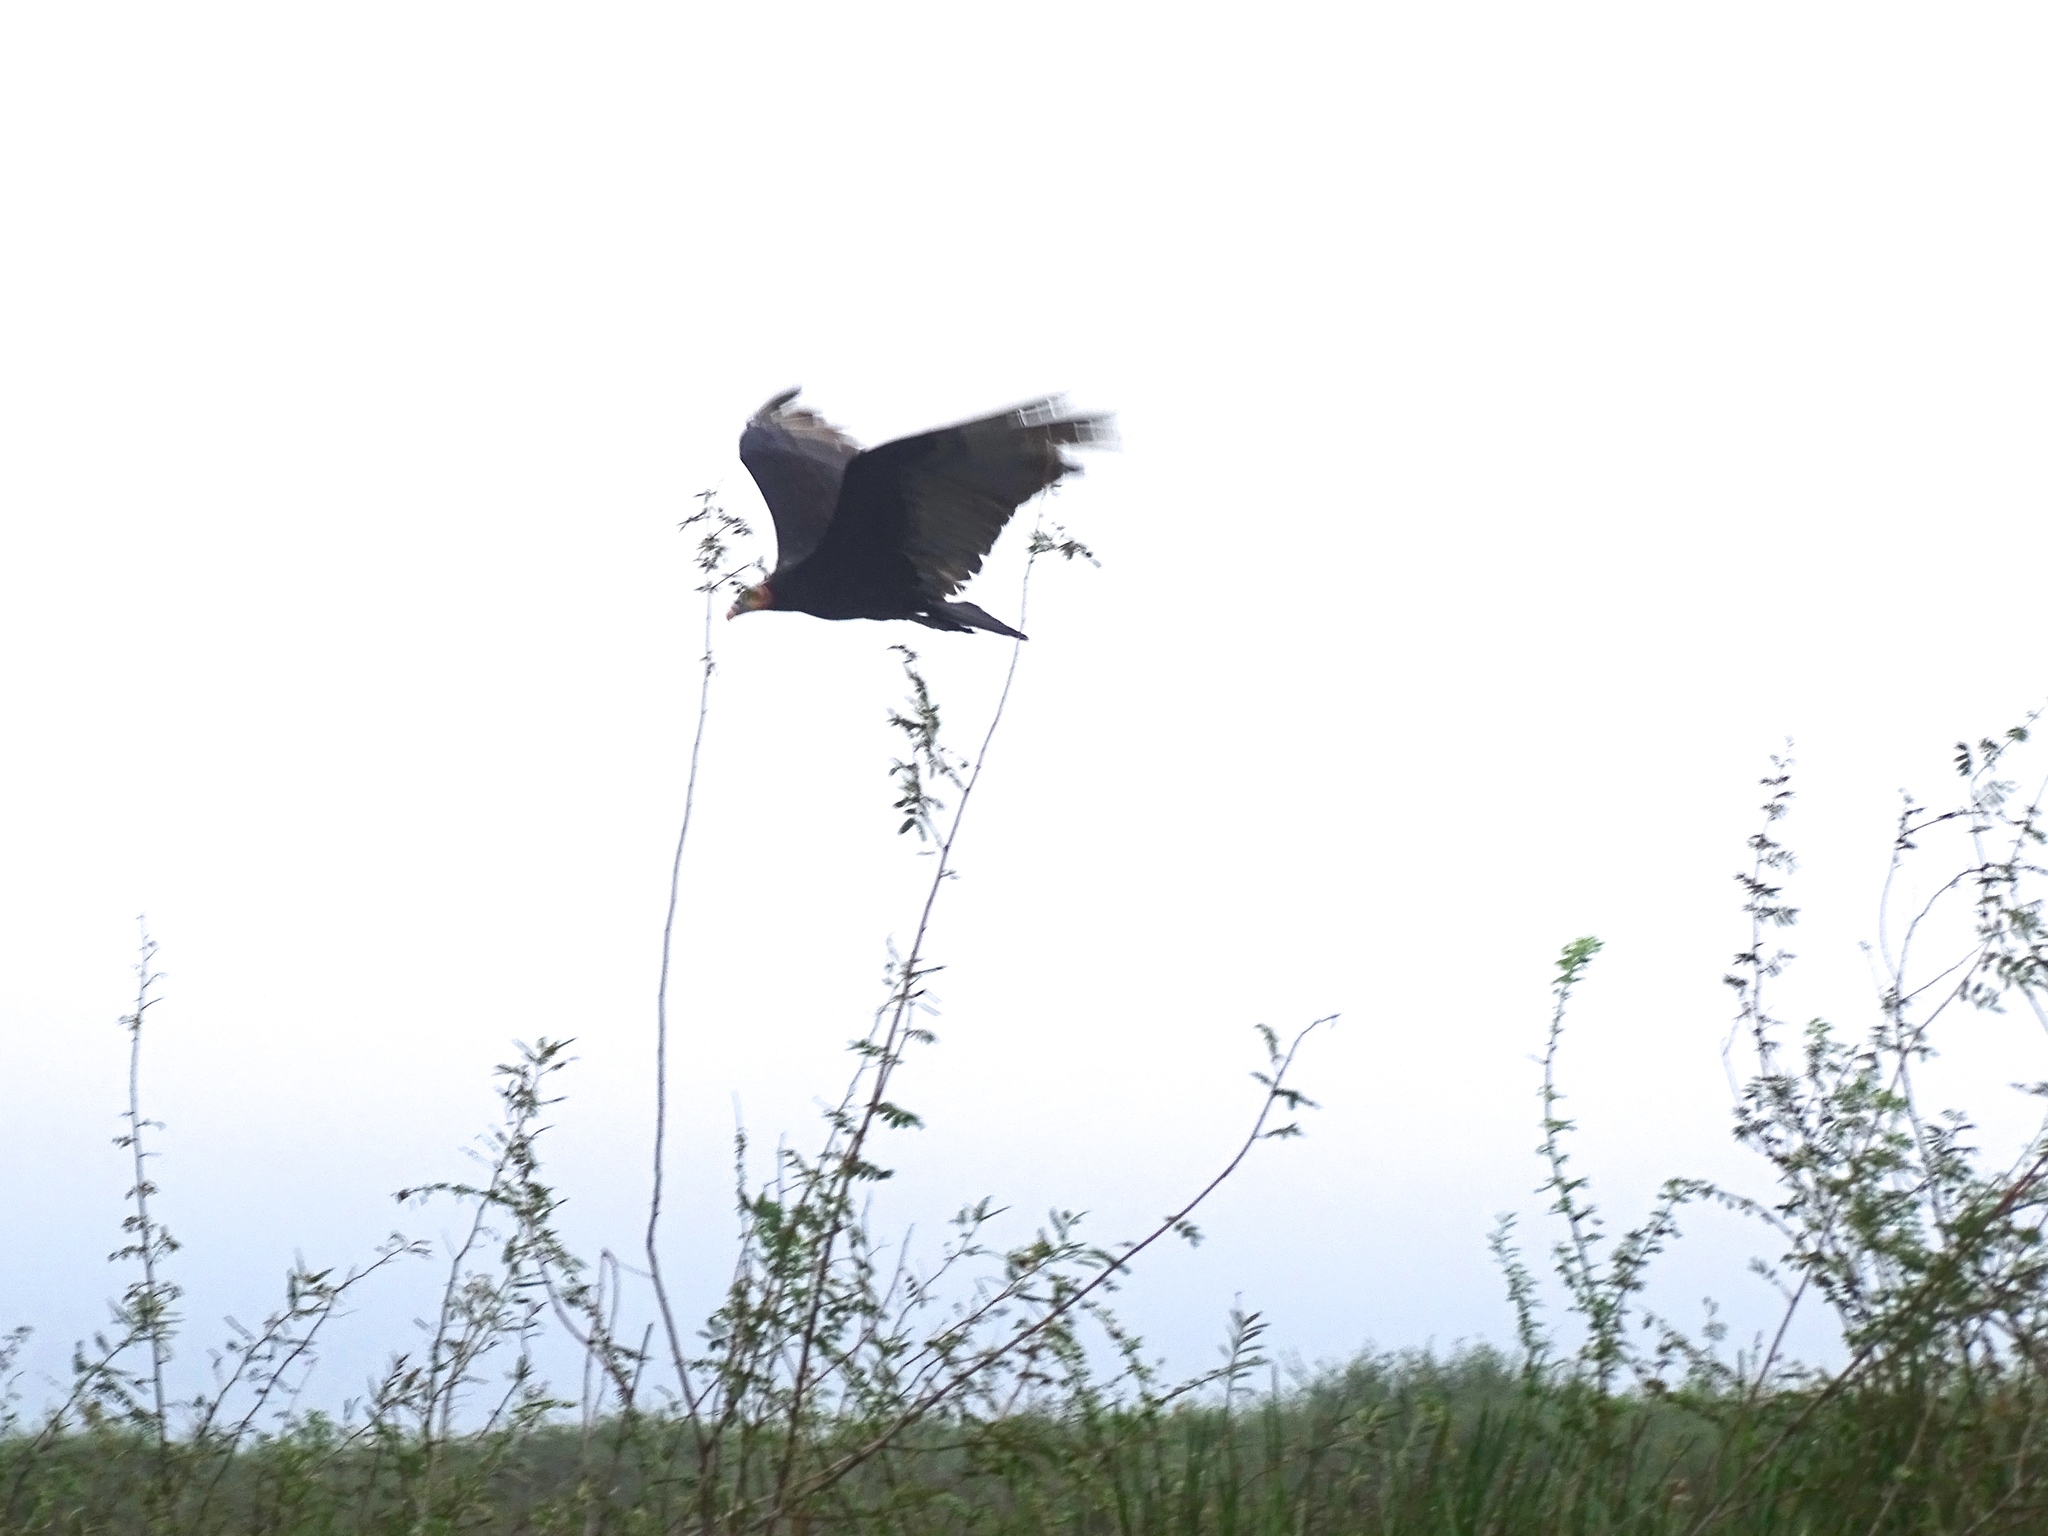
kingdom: Animalia
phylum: Chordata
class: Aves
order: Accipitriformes
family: Cathartidae
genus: Cathartes
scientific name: Cathartes burrovianus
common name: Lesser yellow-headed vulture
